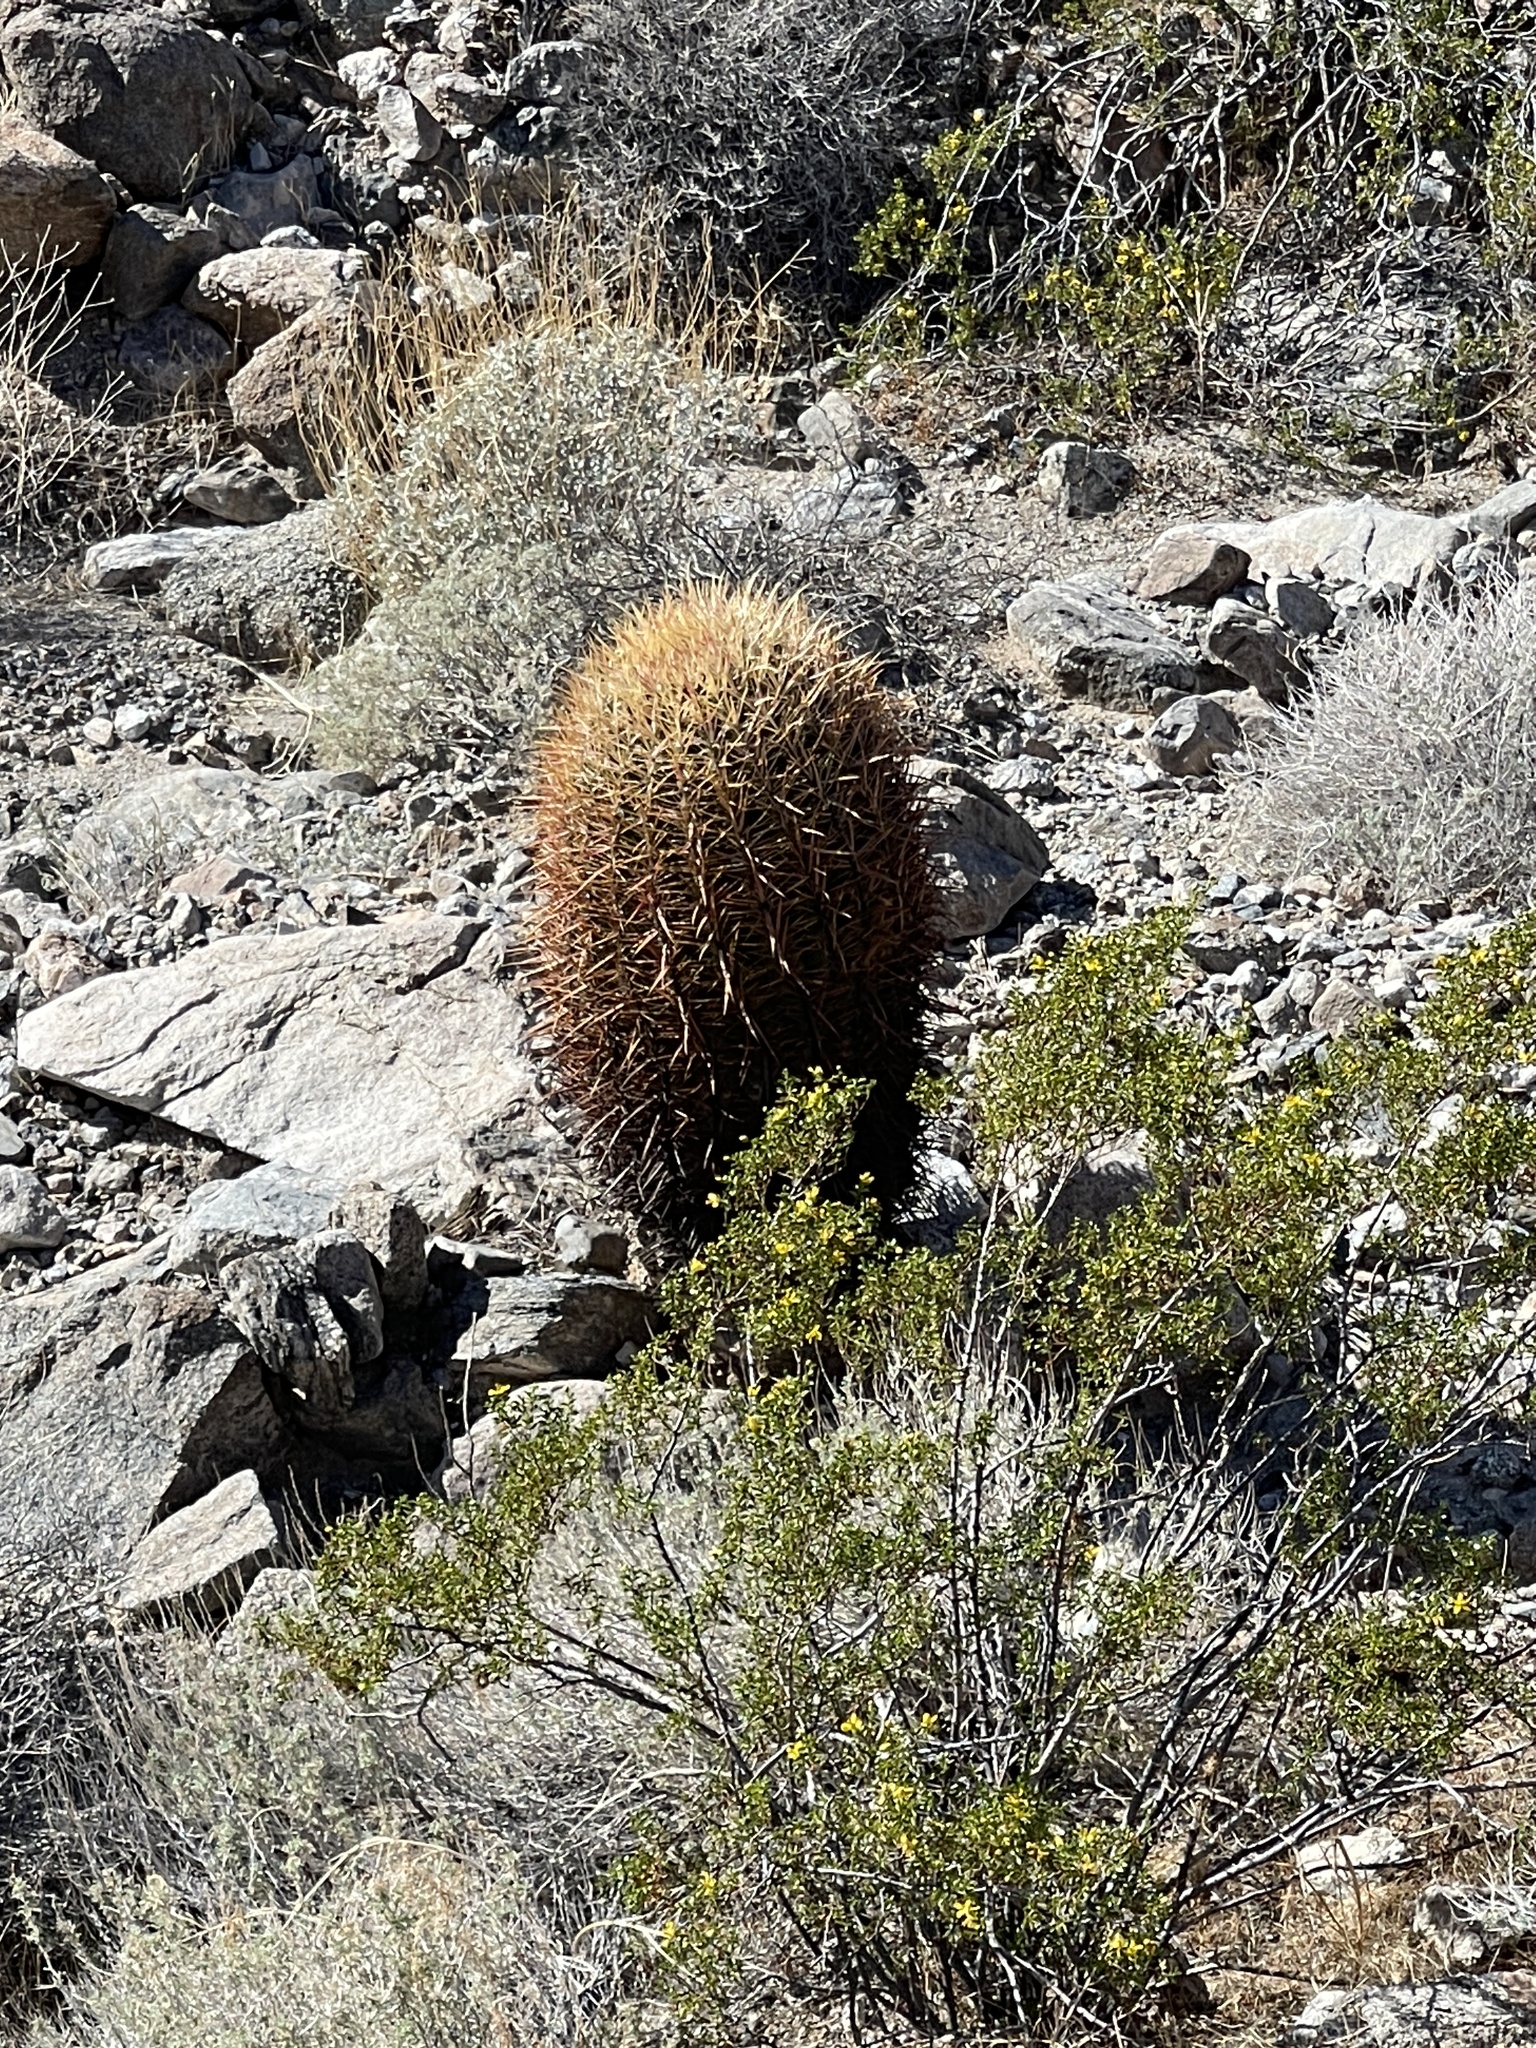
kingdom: Plantae
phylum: Tracheophyta
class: Magnoliopsida
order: Caryophyllales
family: Cactaceae
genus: Ferocactus
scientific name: Ferocactus cylindraceus
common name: California barrel cactus
